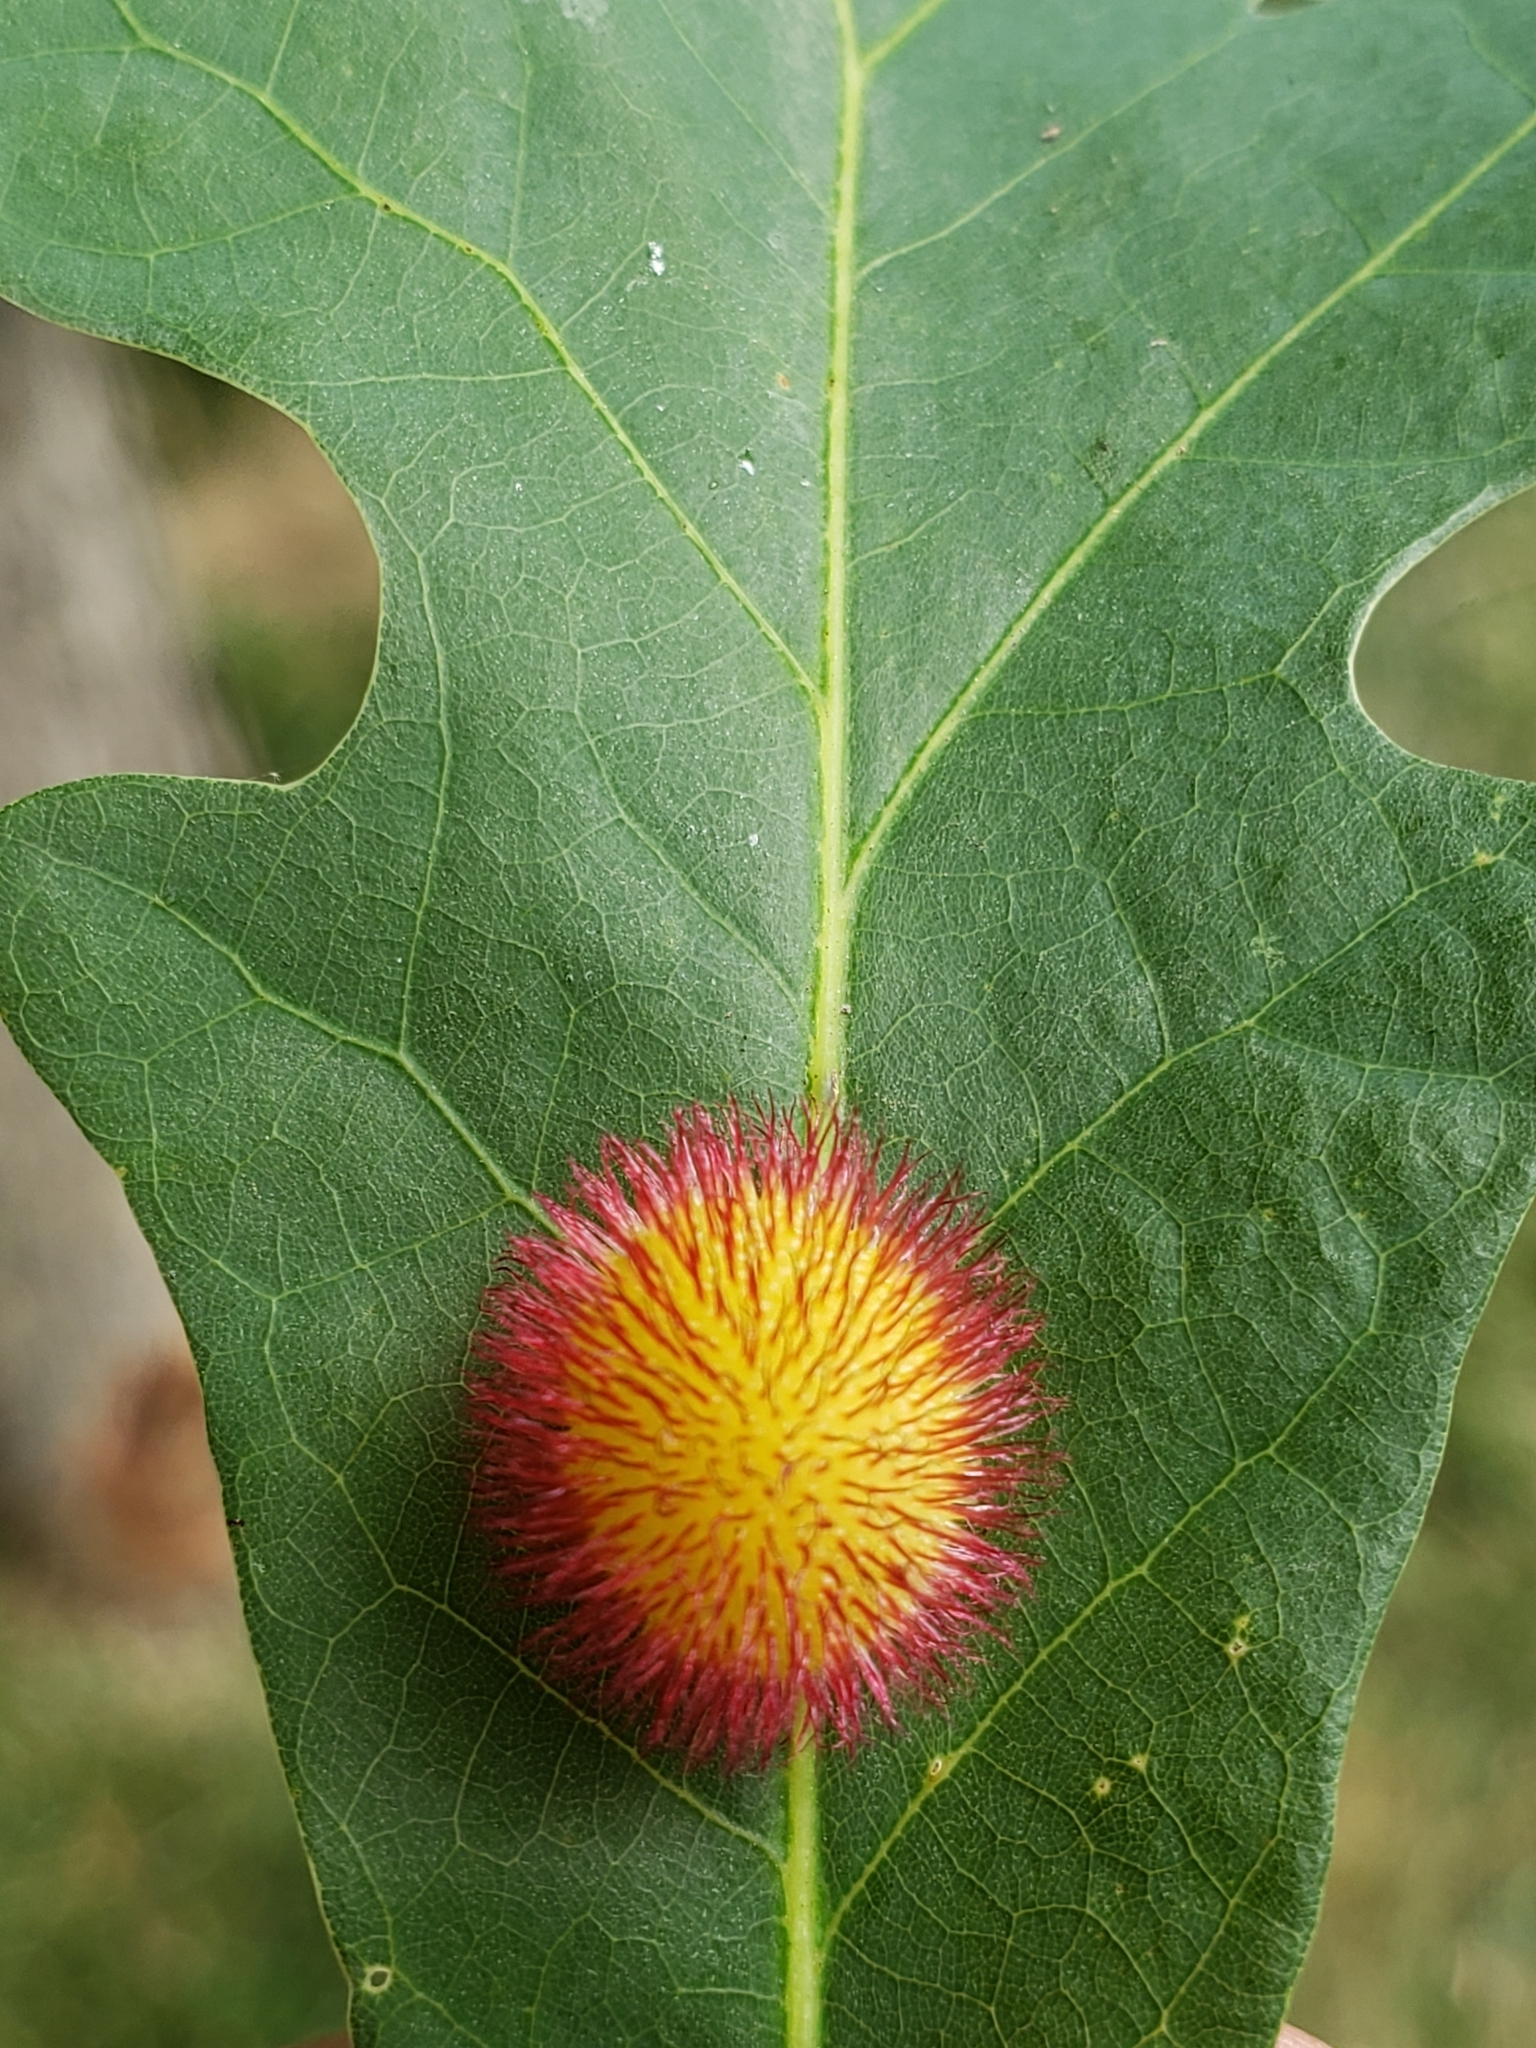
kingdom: Animalia
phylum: Arthropoda
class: Insecta
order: Hymenoptera
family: Cynipidae
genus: Acraspis
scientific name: Acraspis erinacei
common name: Hedgehog gall wasp
